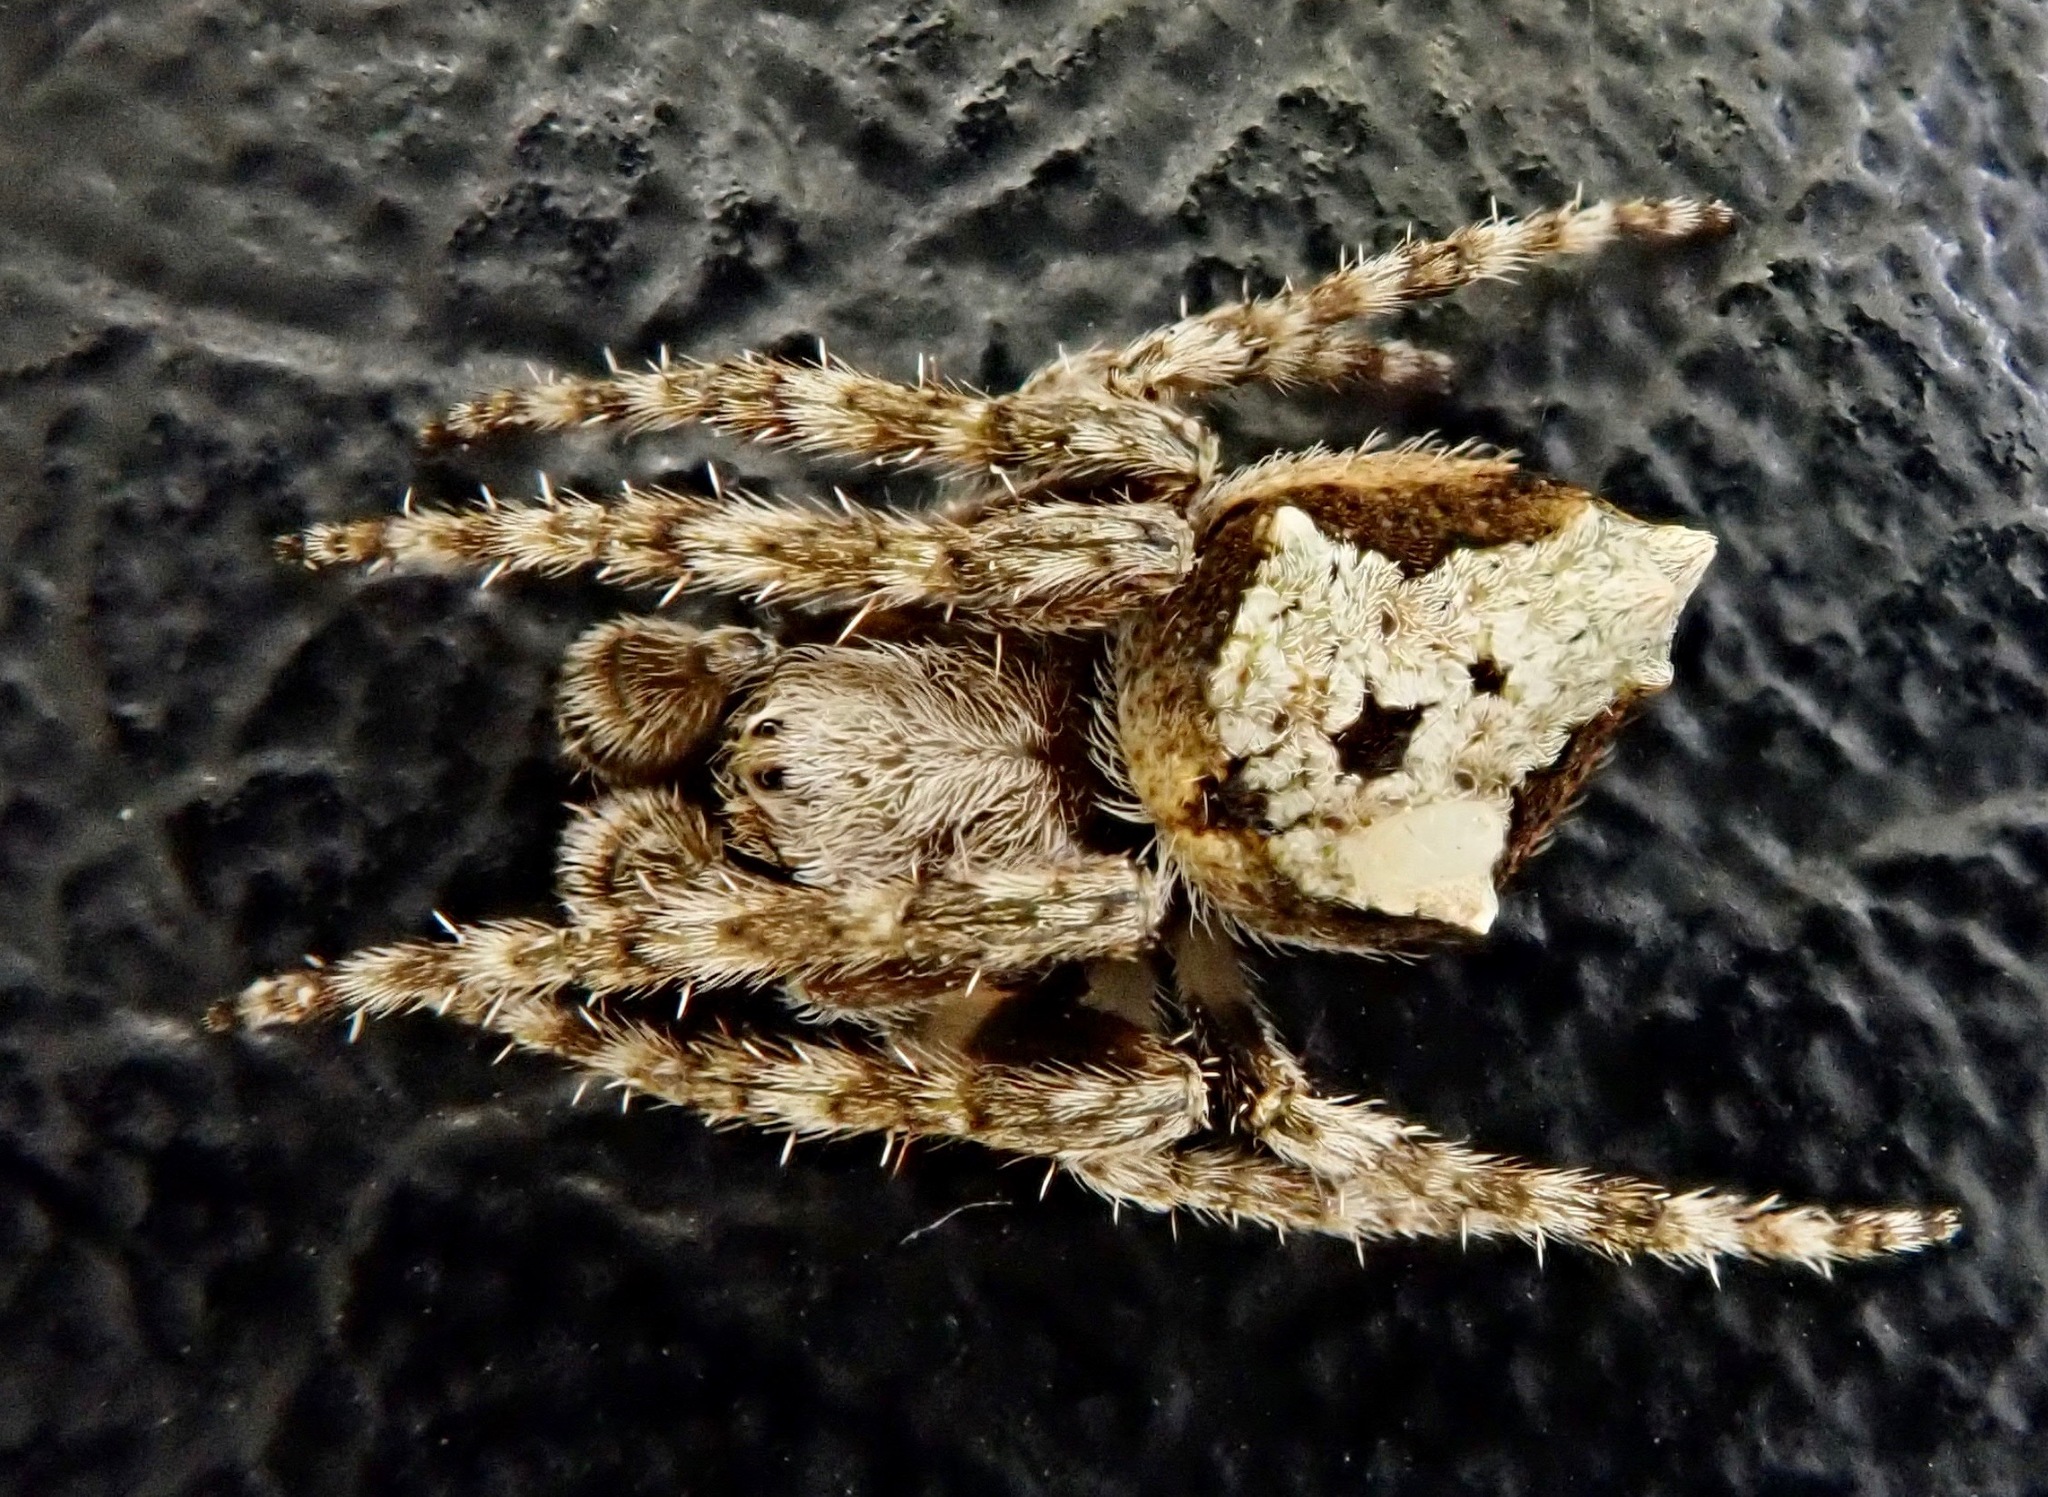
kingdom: Animalia
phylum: Arthropoda
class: Arachnida
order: Araneae
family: Araneidae
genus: Eriophora
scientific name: Eriophora pustulosa
